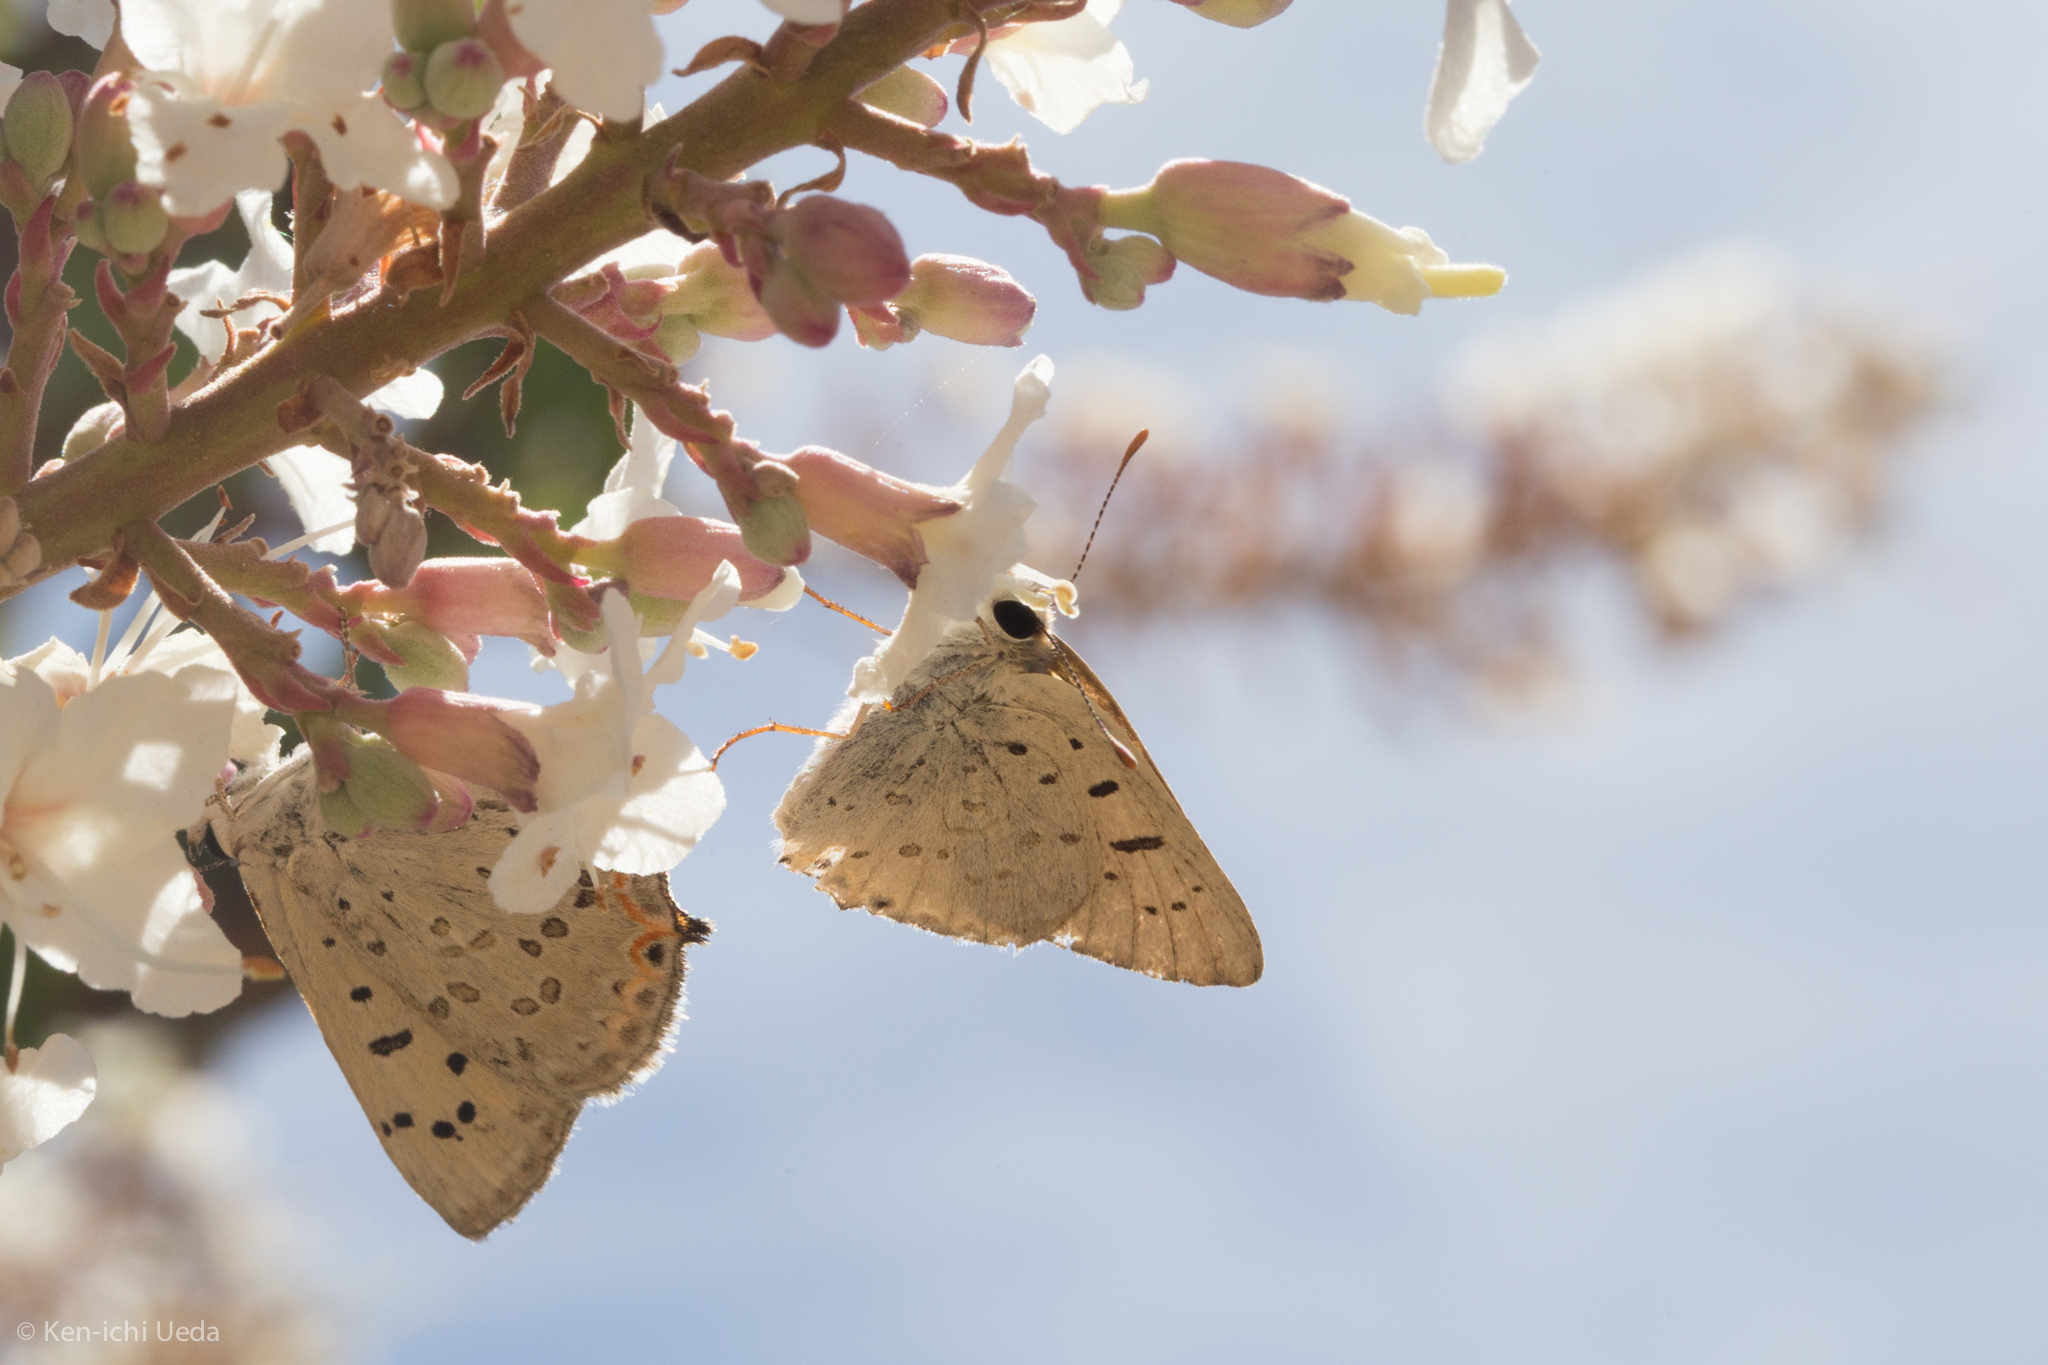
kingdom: Animalia
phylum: Arthropoda
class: Insecta
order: Lepidoptera
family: Lycaenidae
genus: Tharsalea
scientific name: Tharsalea xanthoides
